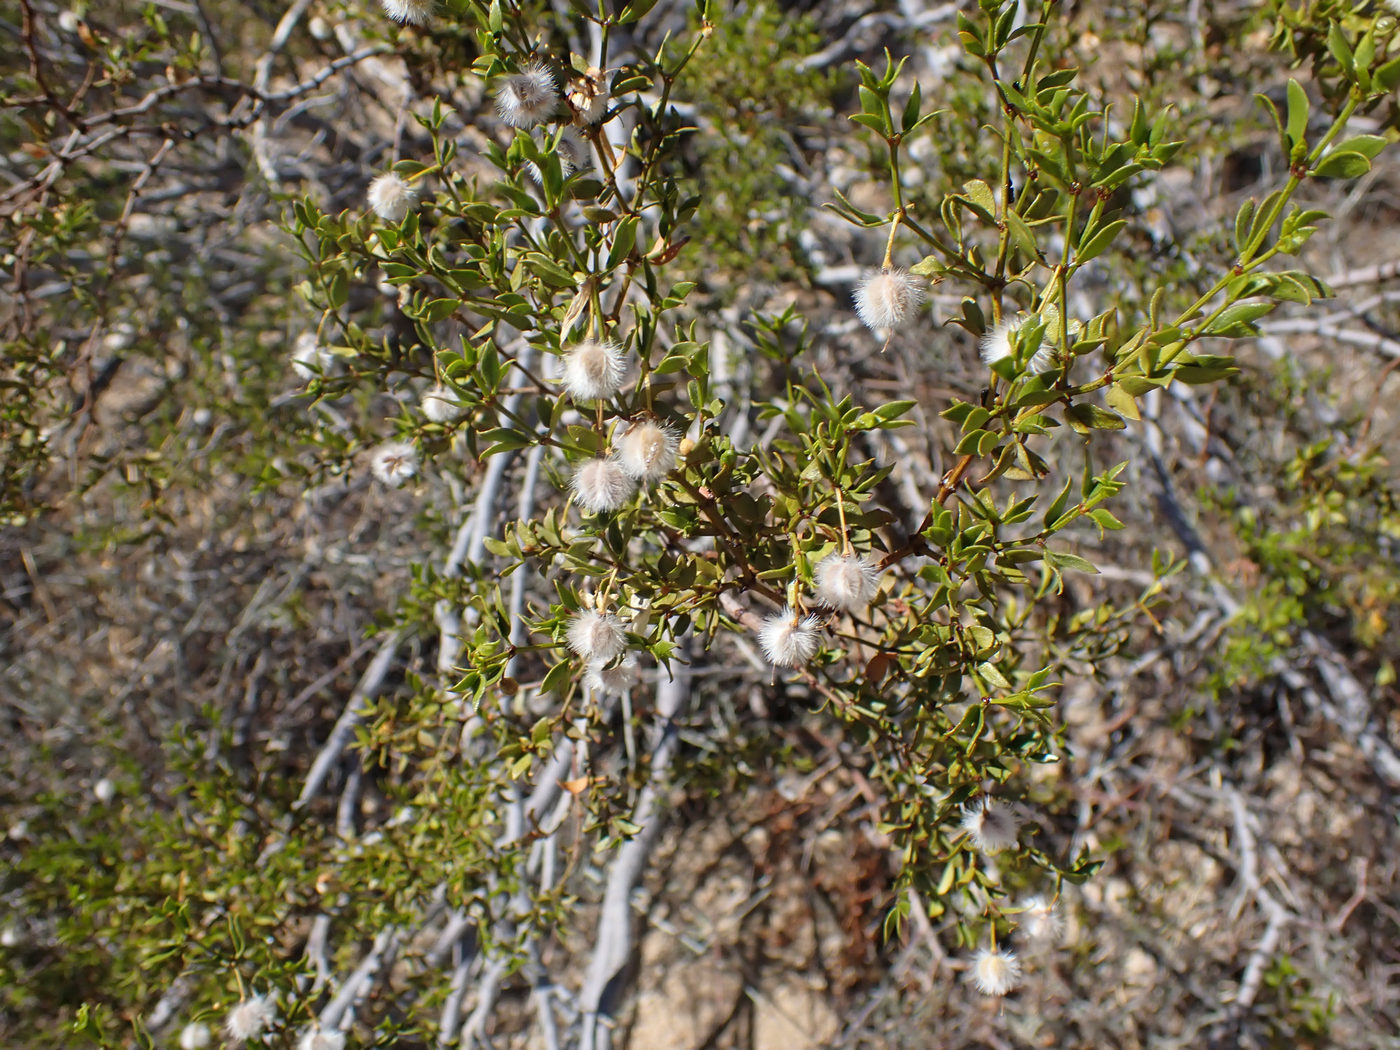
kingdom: Plantae
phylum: Tracheophyta
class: Magnoliopsida
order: Zygophyllales
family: Zygophyllaceae
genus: Larrea
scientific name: Larrea tridentata
